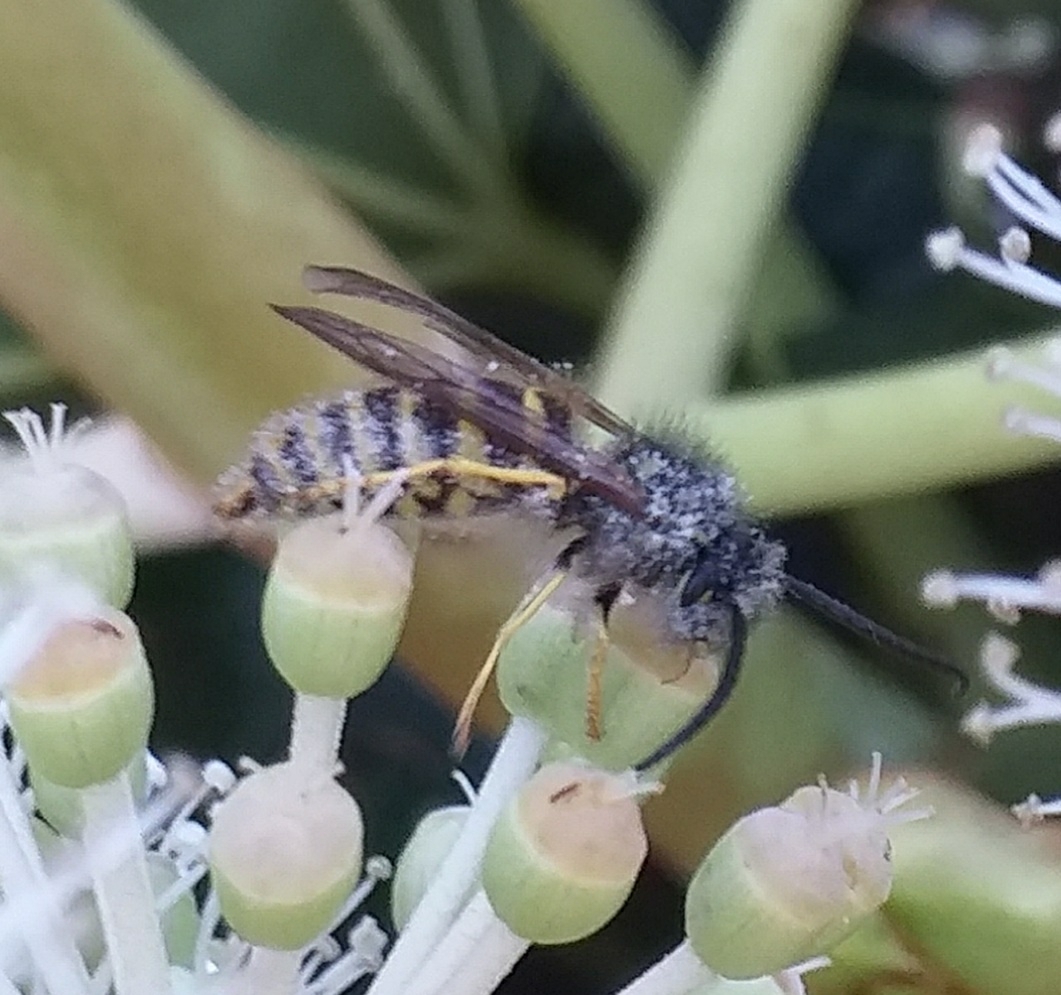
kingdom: Animalia
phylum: Arthropoda
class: Insecta
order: Hymenoptera
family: Vespidae
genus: Vespula
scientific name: Vespula vulgaris
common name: Common wasp
